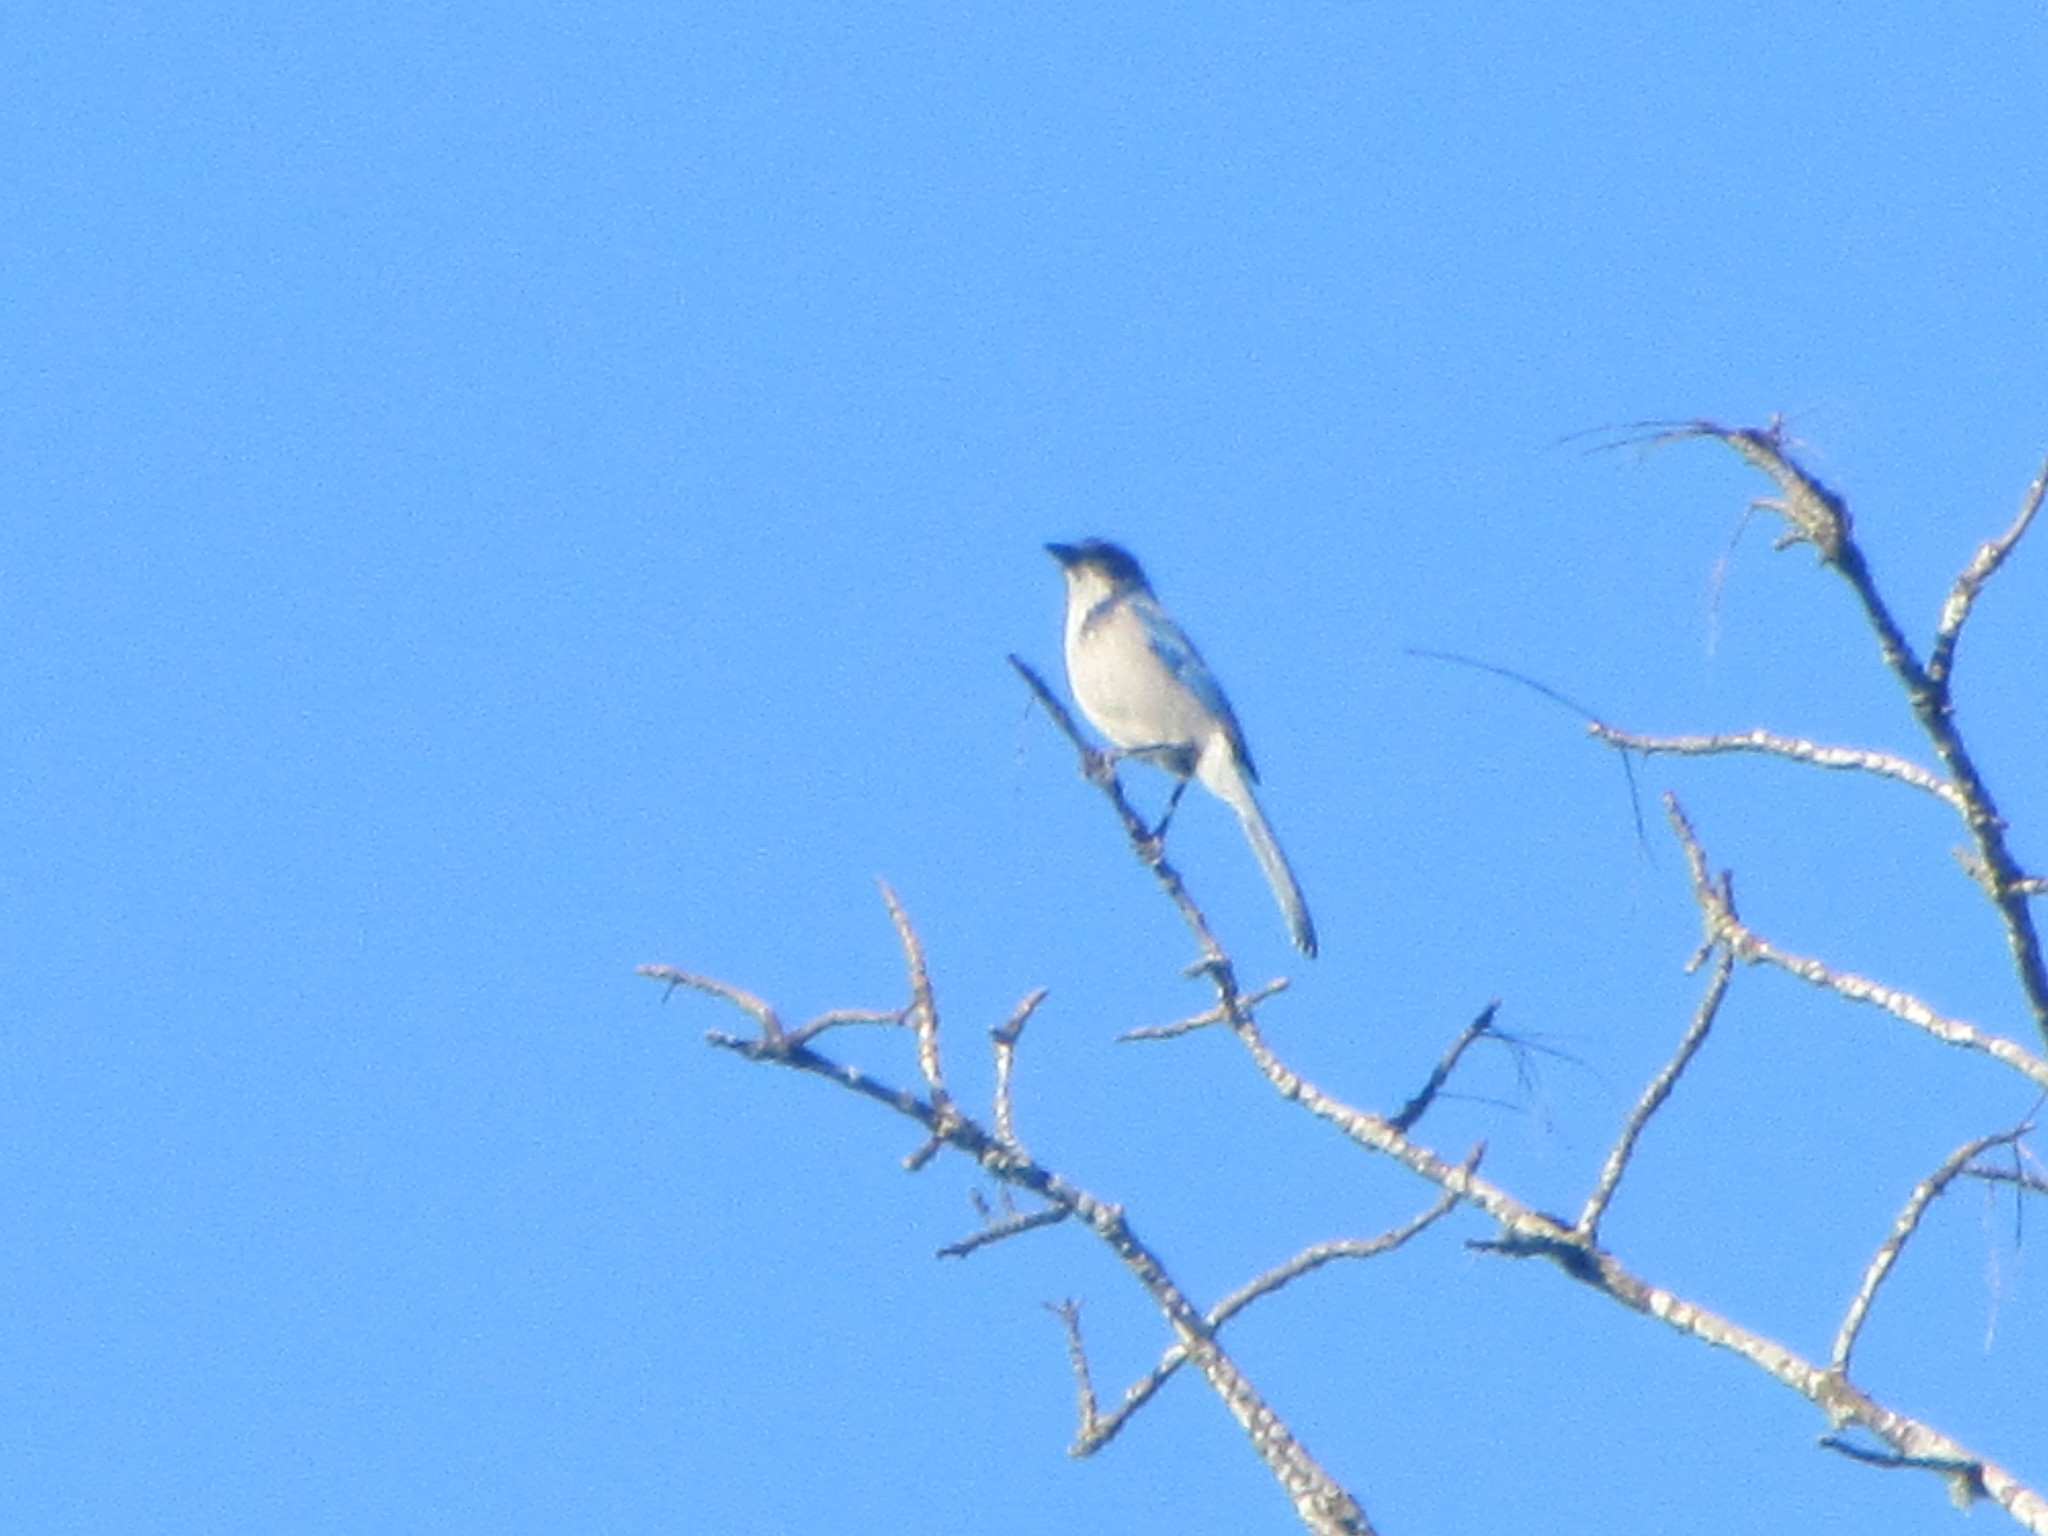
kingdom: Animalia
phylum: Chordata
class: Aves
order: Passeriformes
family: Corvidae
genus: Aphelocoma
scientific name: Aphelocoma californica
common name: California scrub-jay
